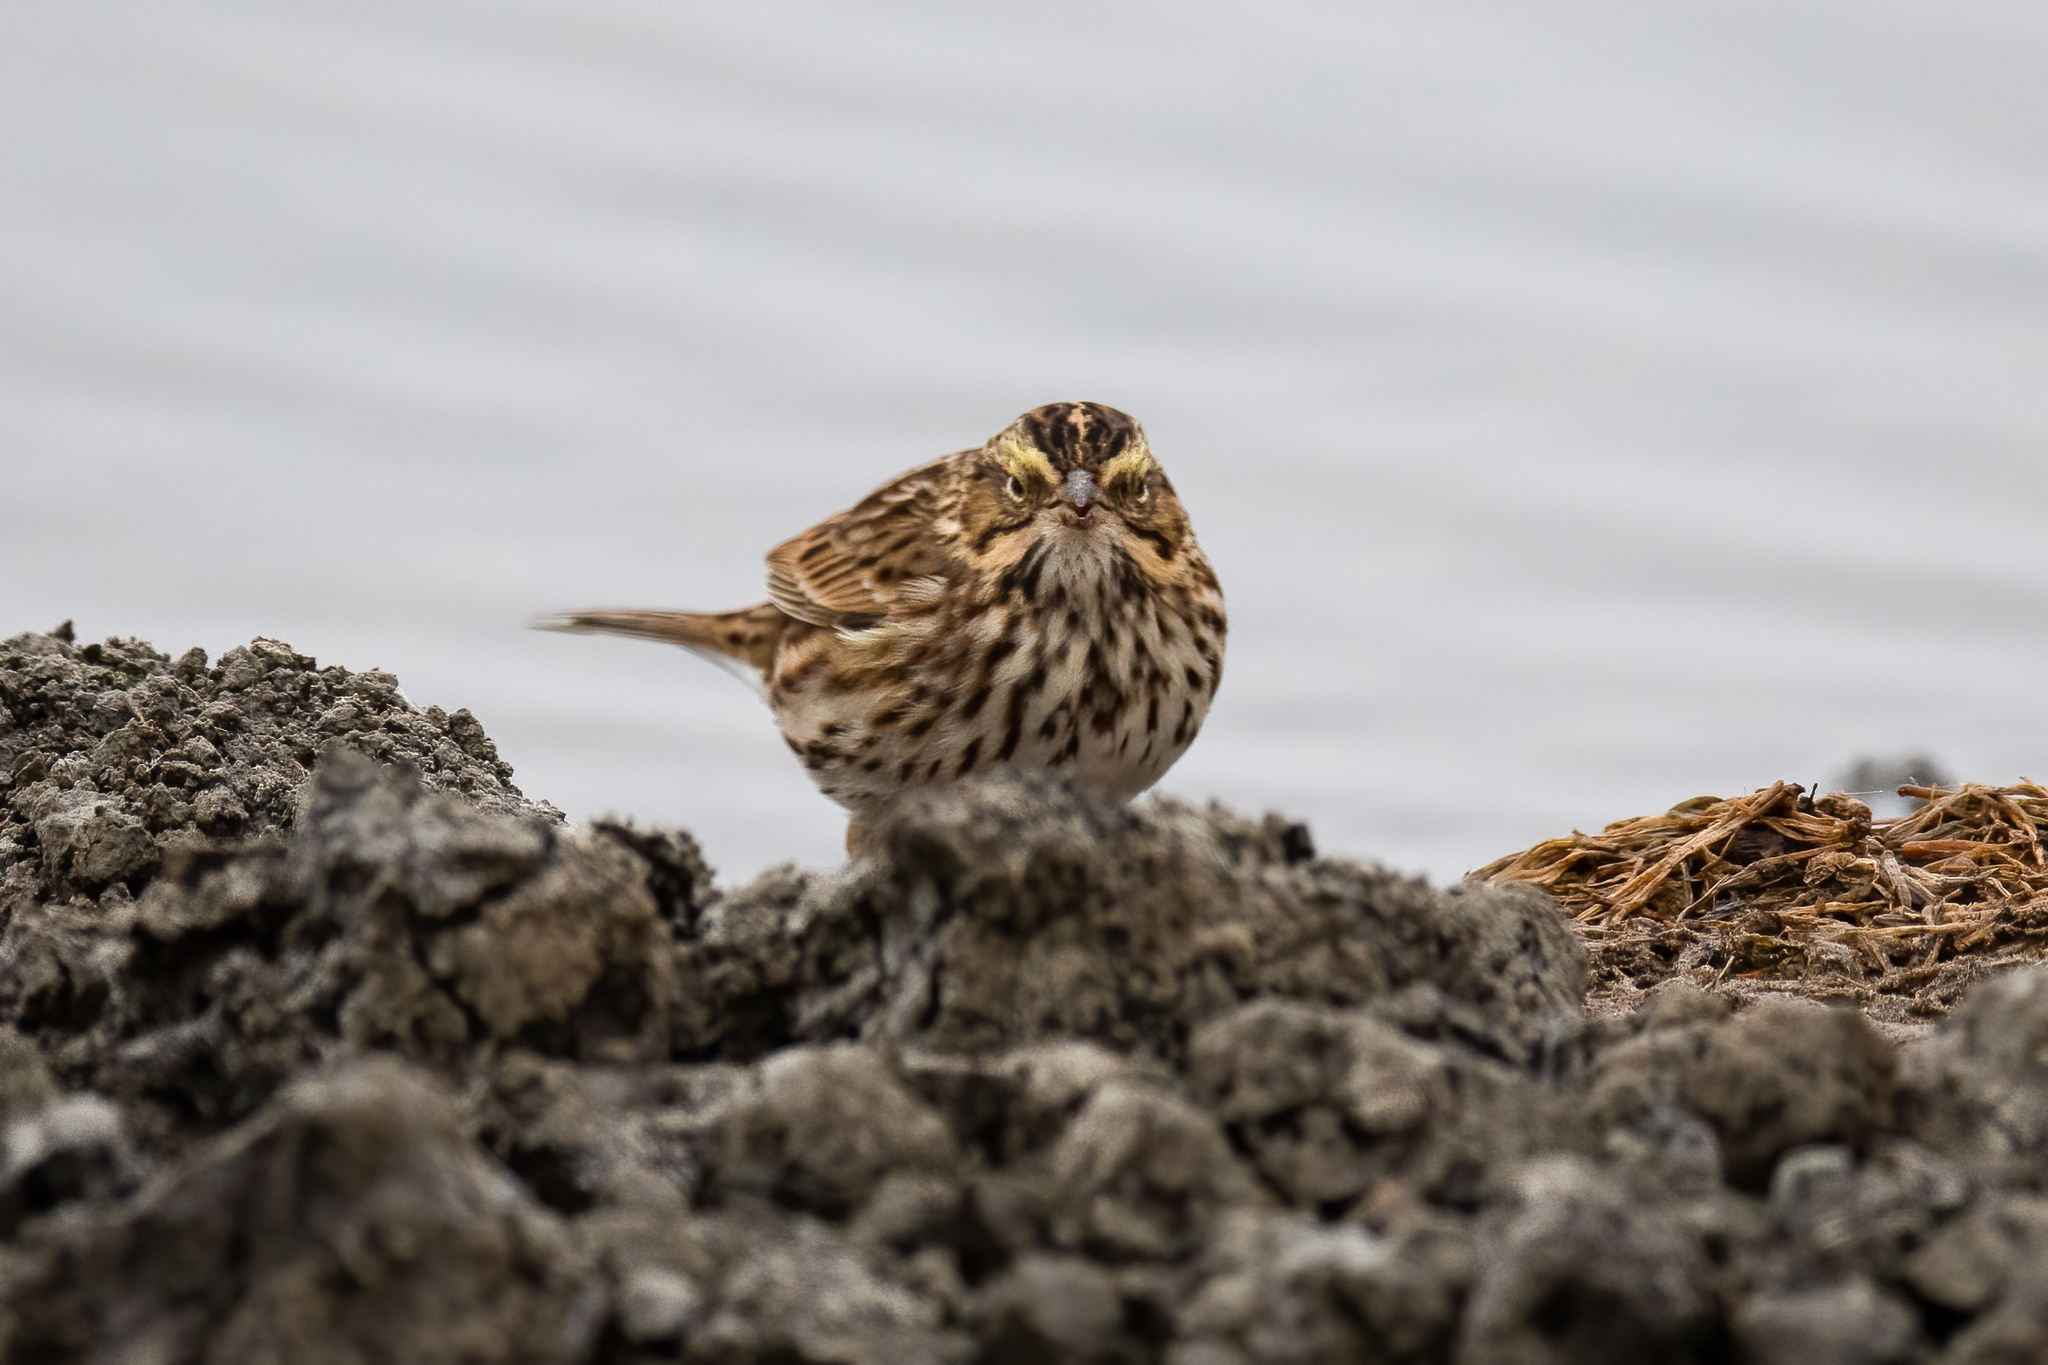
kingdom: Animalia
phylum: Chordata
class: Aves
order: Passeriformes
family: Passerellidae
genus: Passerculus
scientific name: Passerculus sandwichensis
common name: Savannah sparrow
